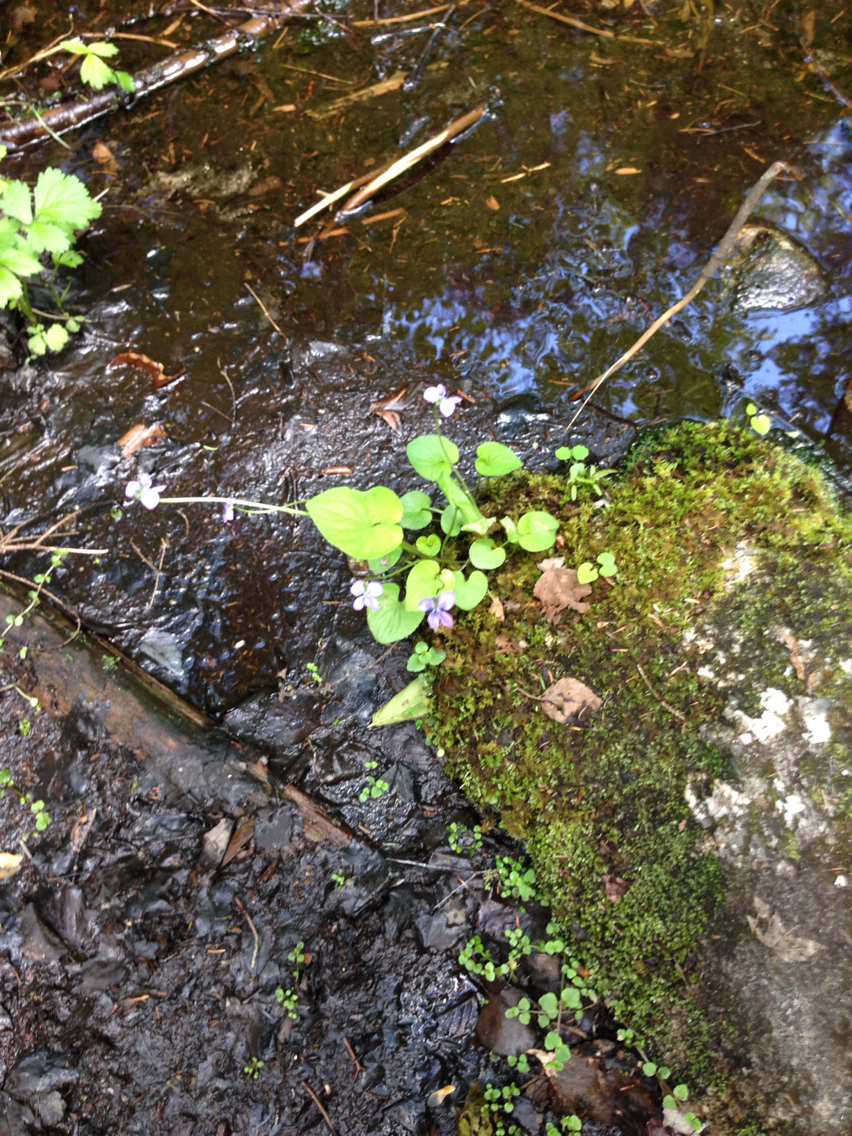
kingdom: Plantae
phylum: Tracheophyta
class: Magnoliopsida
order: Malpighiales
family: Violaceae
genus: Viola
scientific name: Viola cucullata
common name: Marsh blue violet
